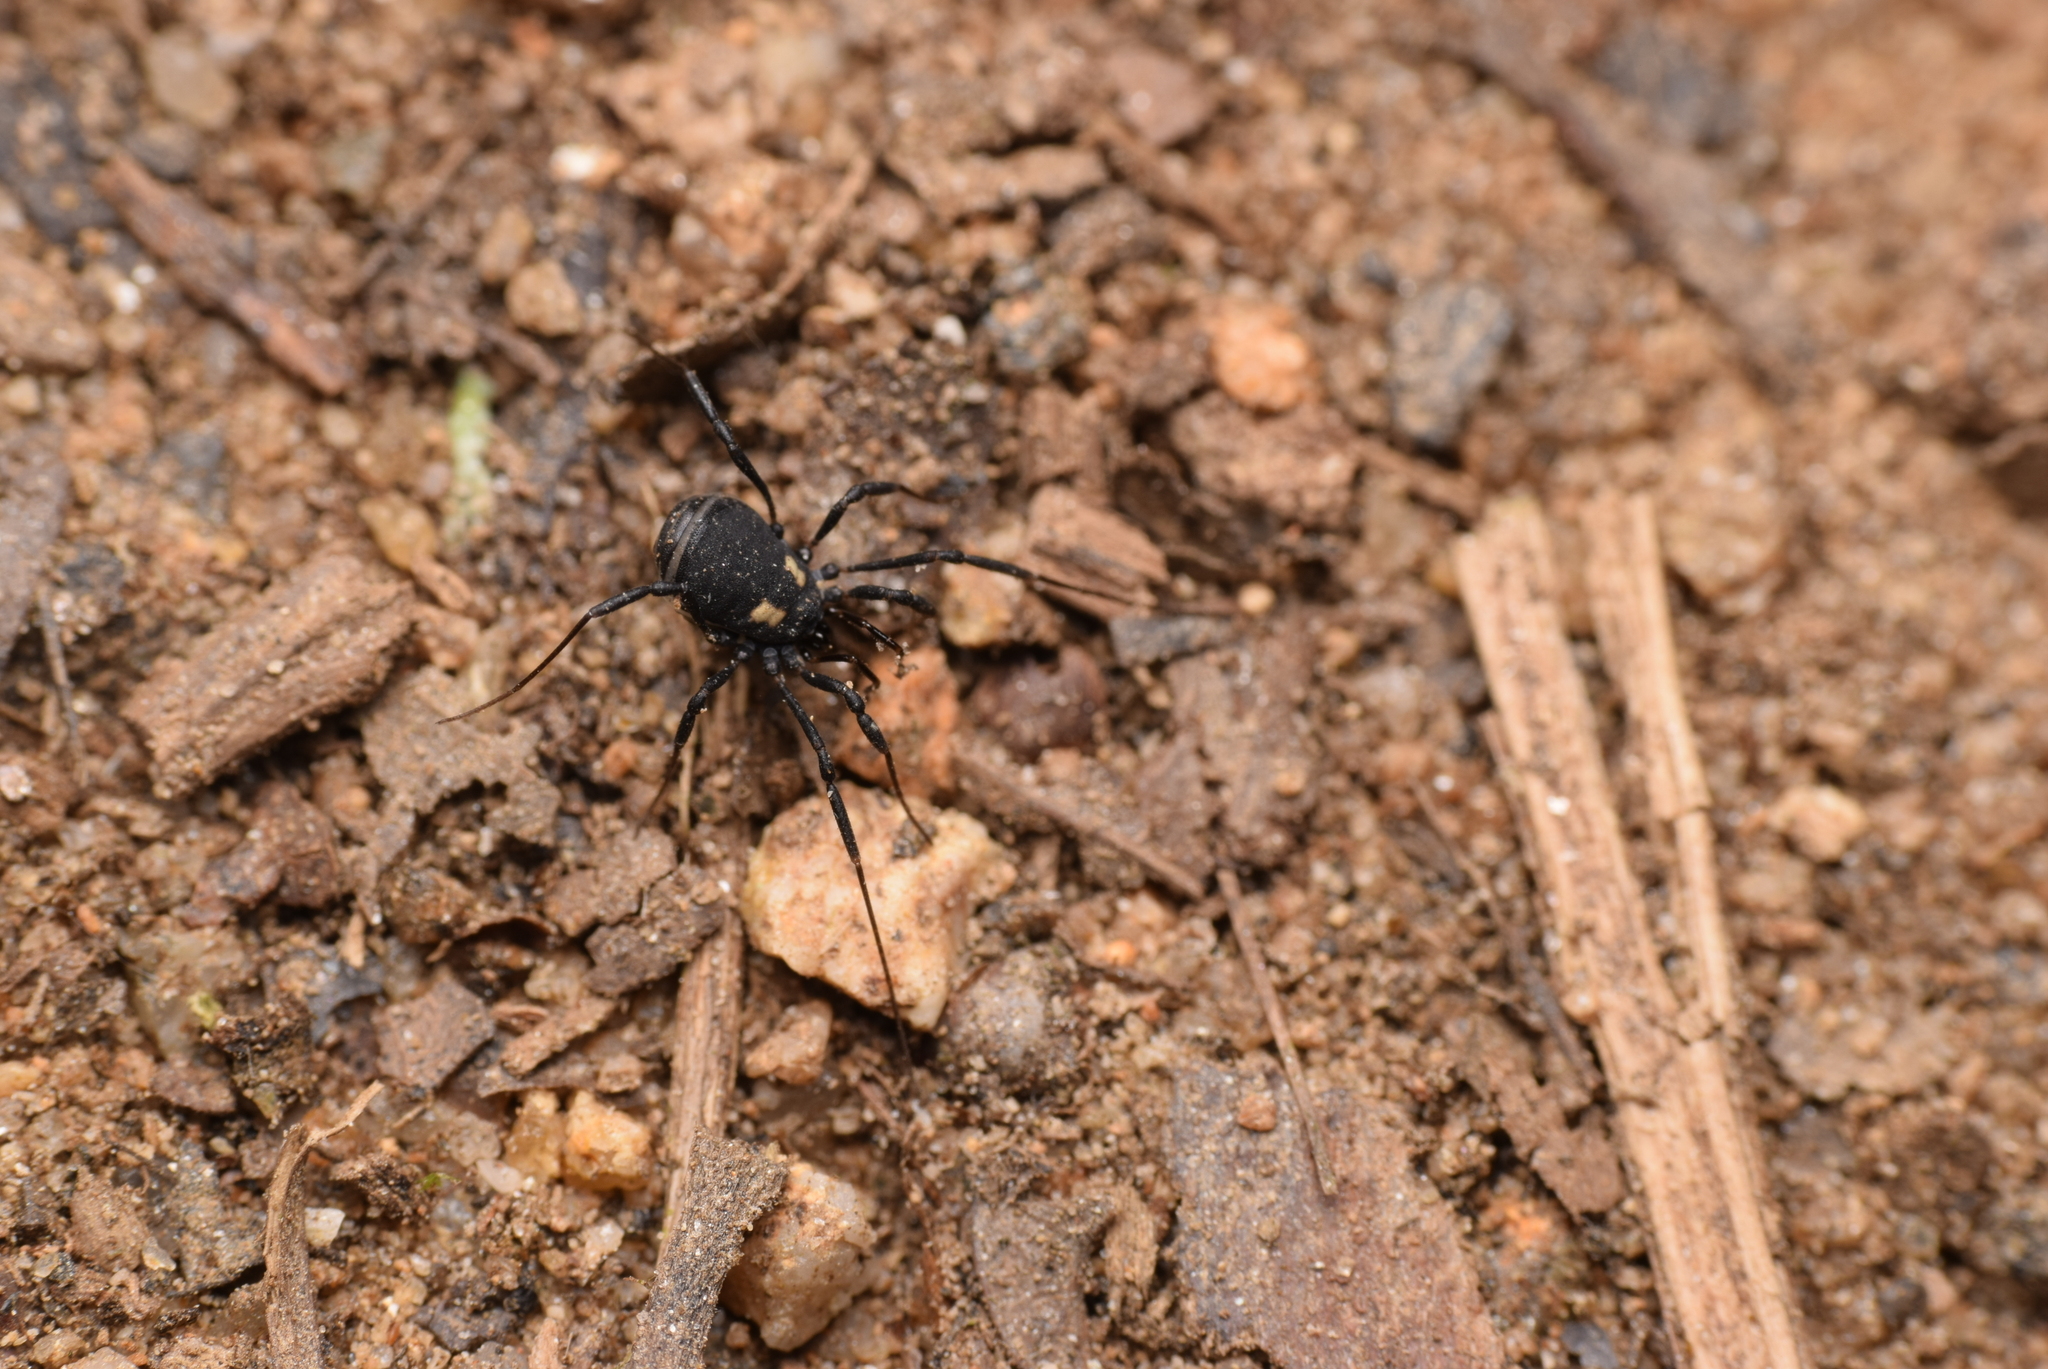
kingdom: Animalia
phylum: Arthropoda
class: Arachnida
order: Opiliones
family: Nemastomatidae
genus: Nemastoma
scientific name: Nemastoma bimaculatum
